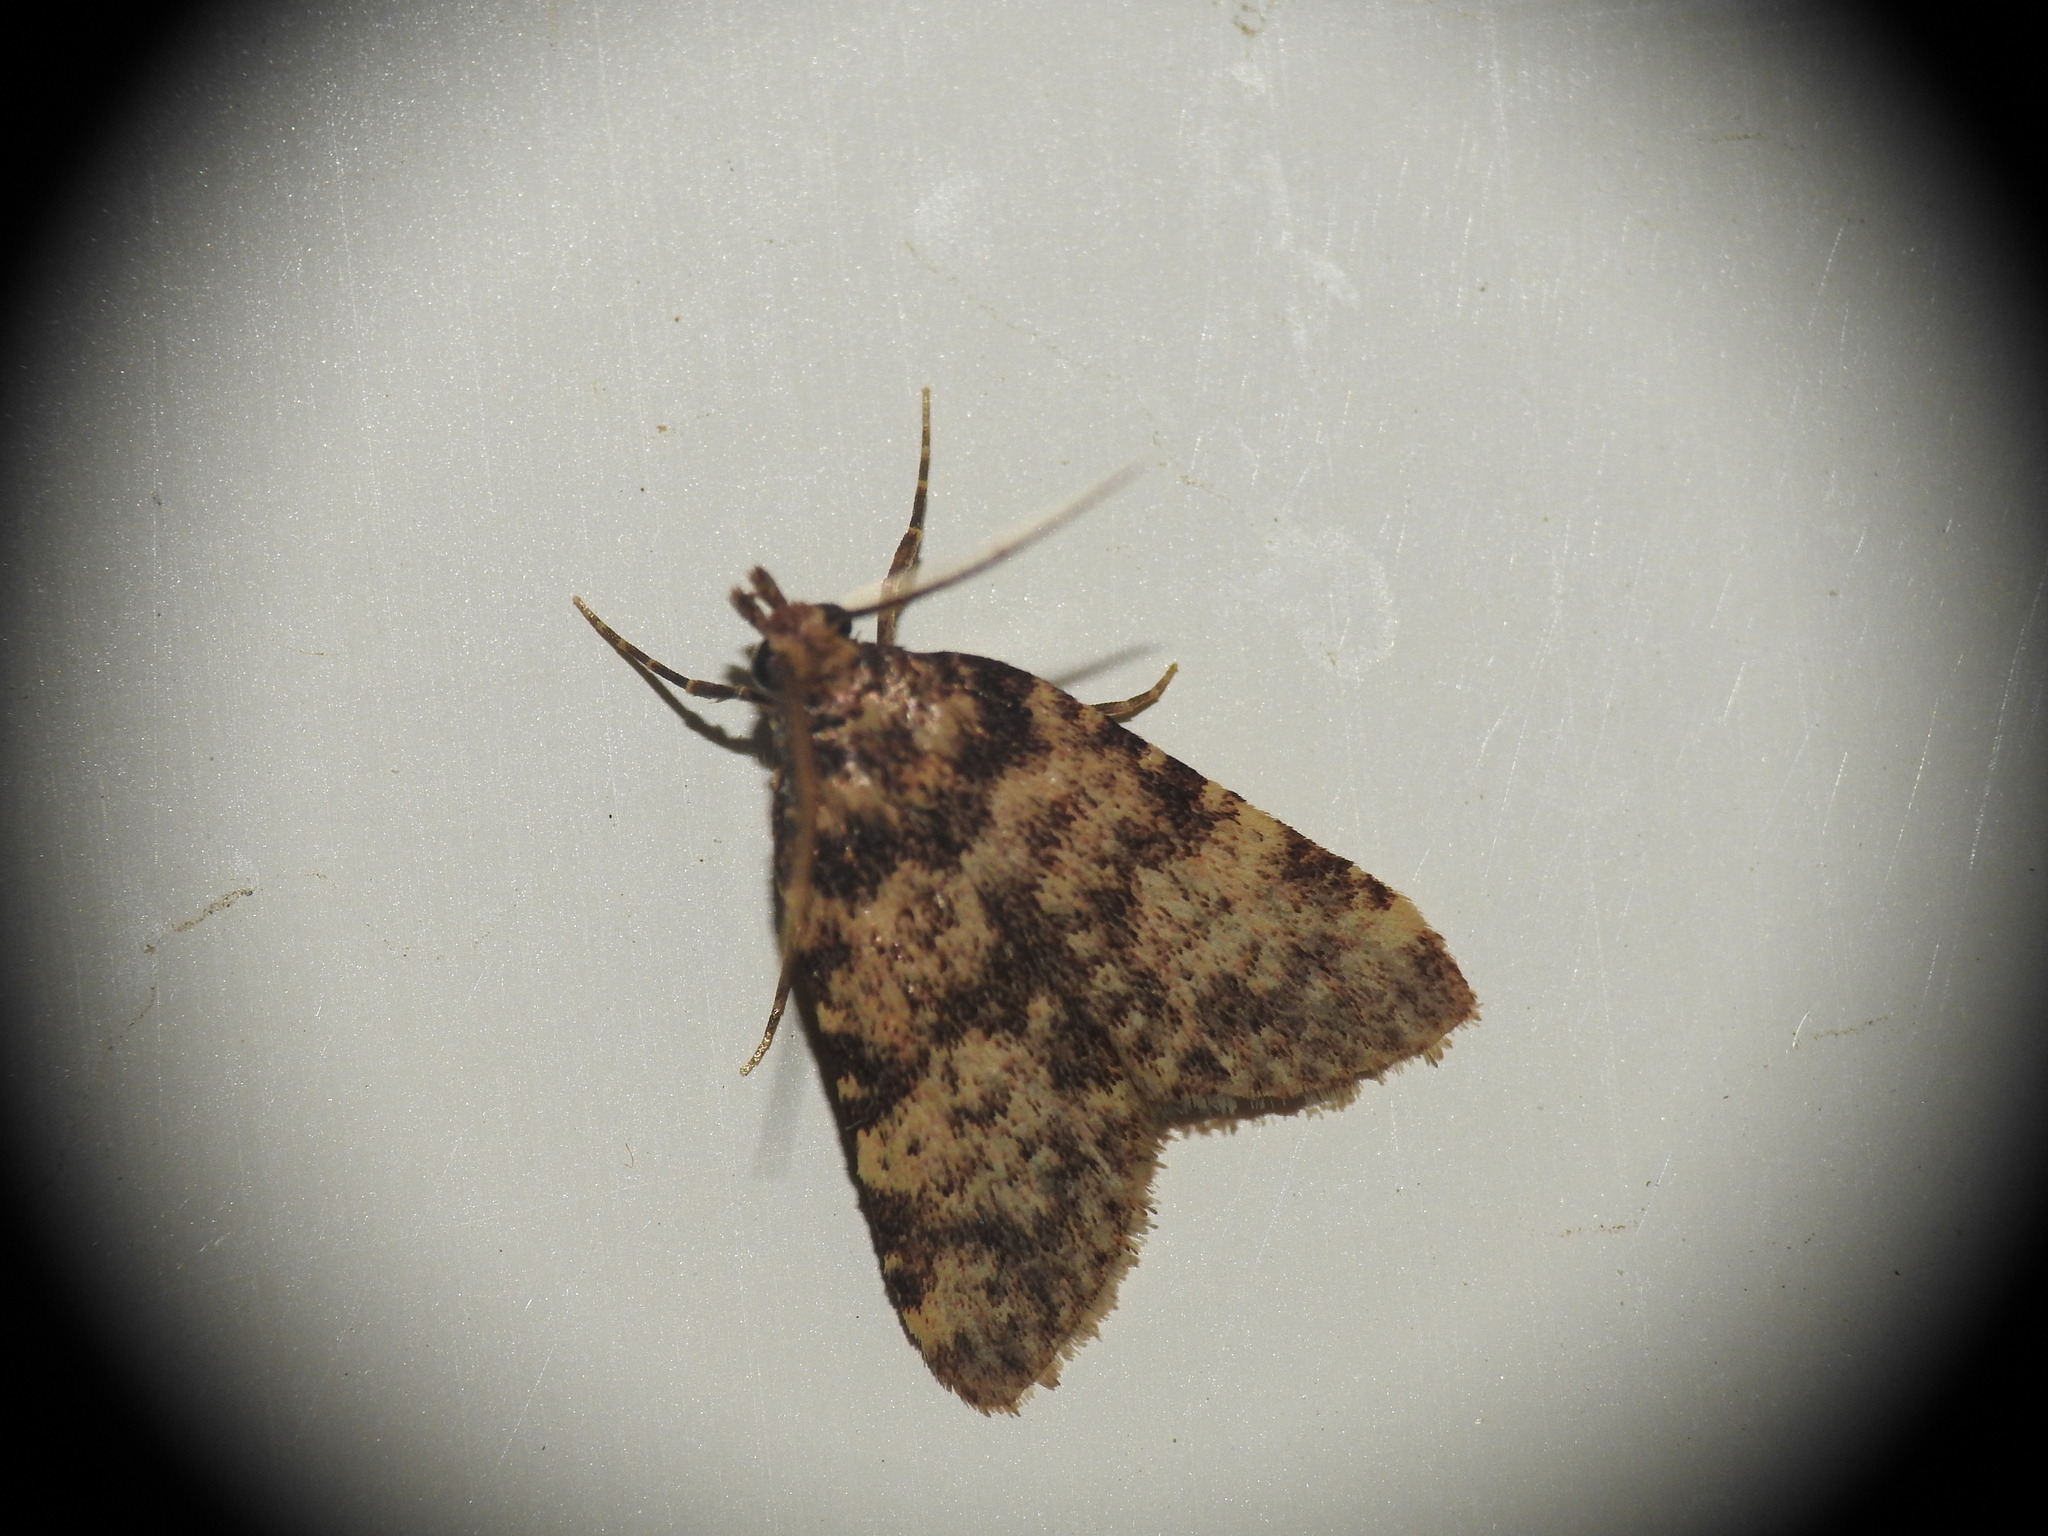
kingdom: Animalia
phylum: Arthropoda
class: Insecta
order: Lepidoptera
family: Pyralidae
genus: Aglossa
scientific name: Aglossa brabanti
